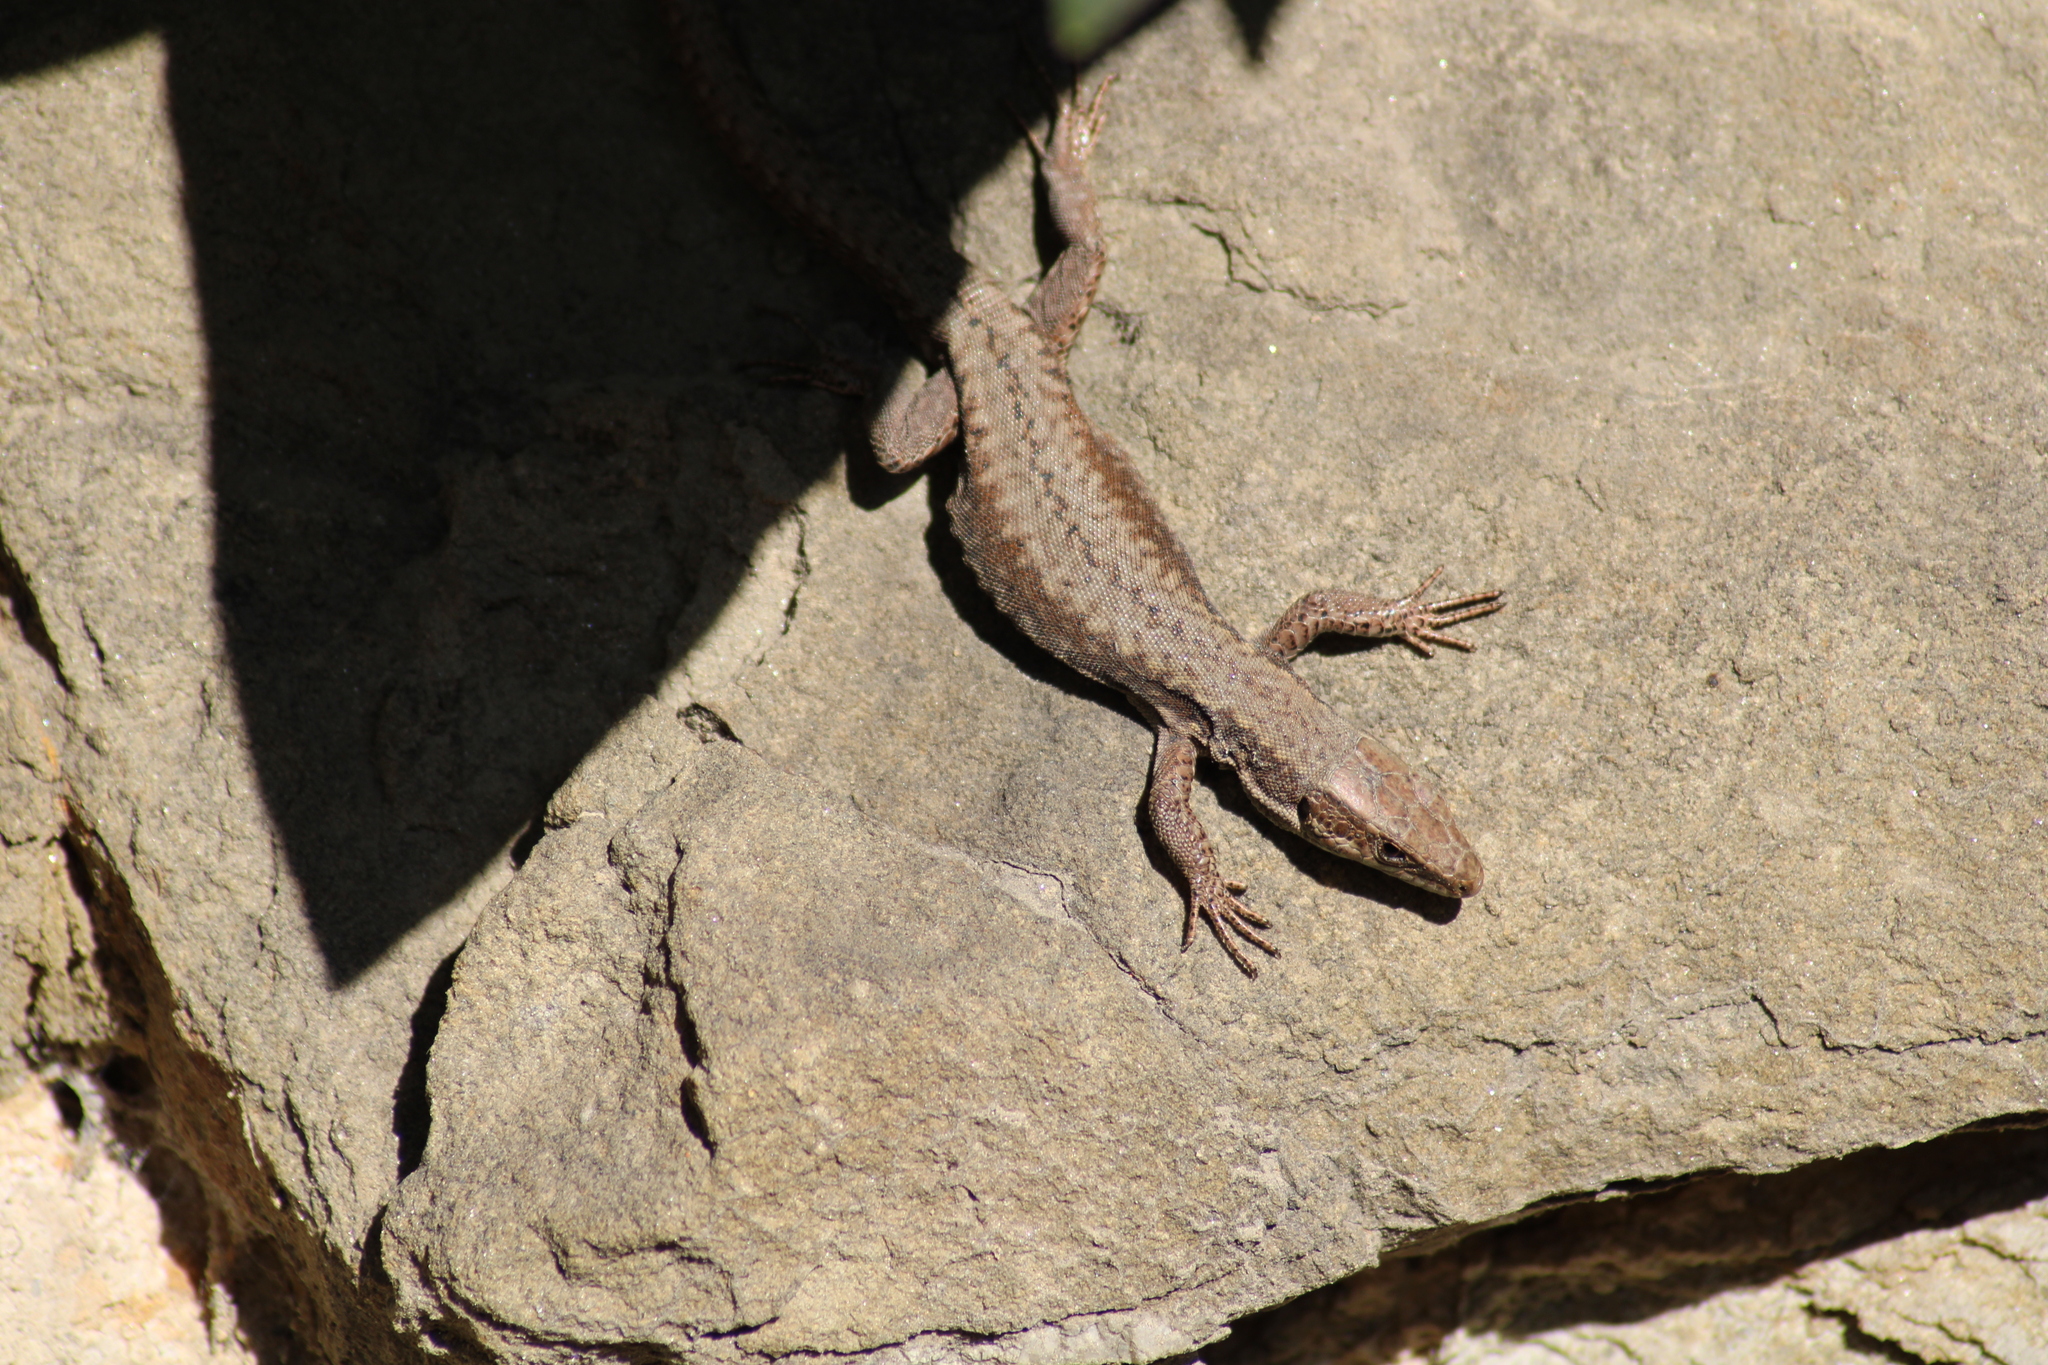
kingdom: Animalia
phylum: Chordata
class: Squamata
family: Lacertidae
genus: Podarcis
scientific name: Podarcis muralis
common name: Common wall lizard
